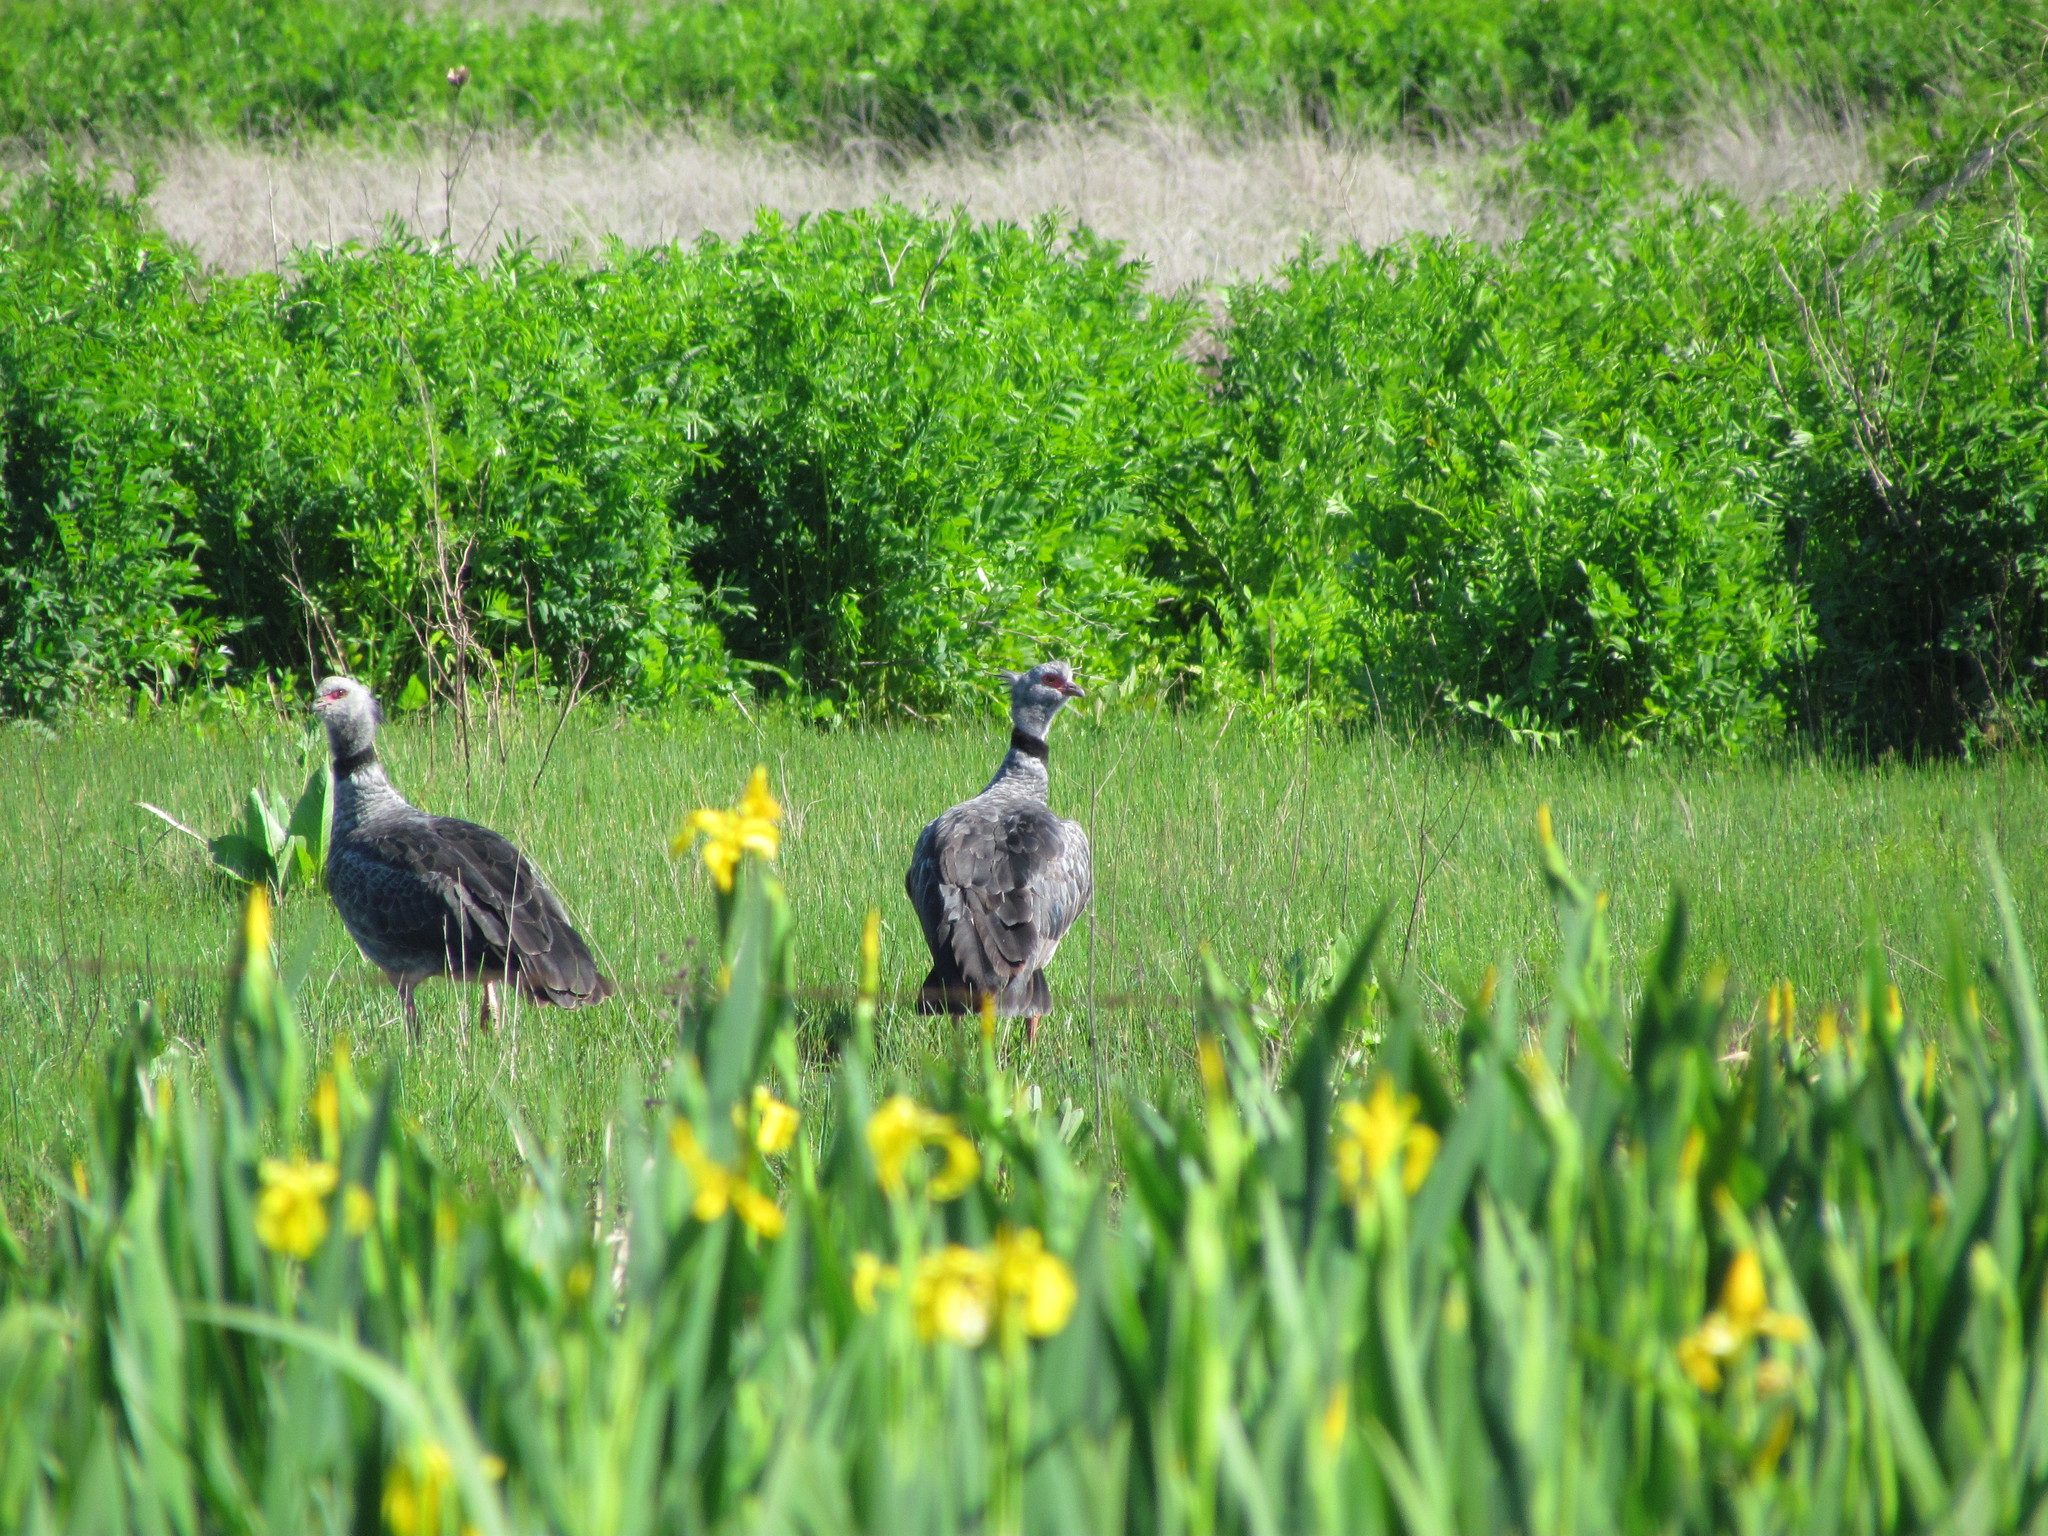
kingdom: Animalia
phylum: Chordata
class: Aves
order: Anseriformes
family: Anhimidae
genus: Chauna
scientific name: Chauna torquata
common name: Southern screamer
